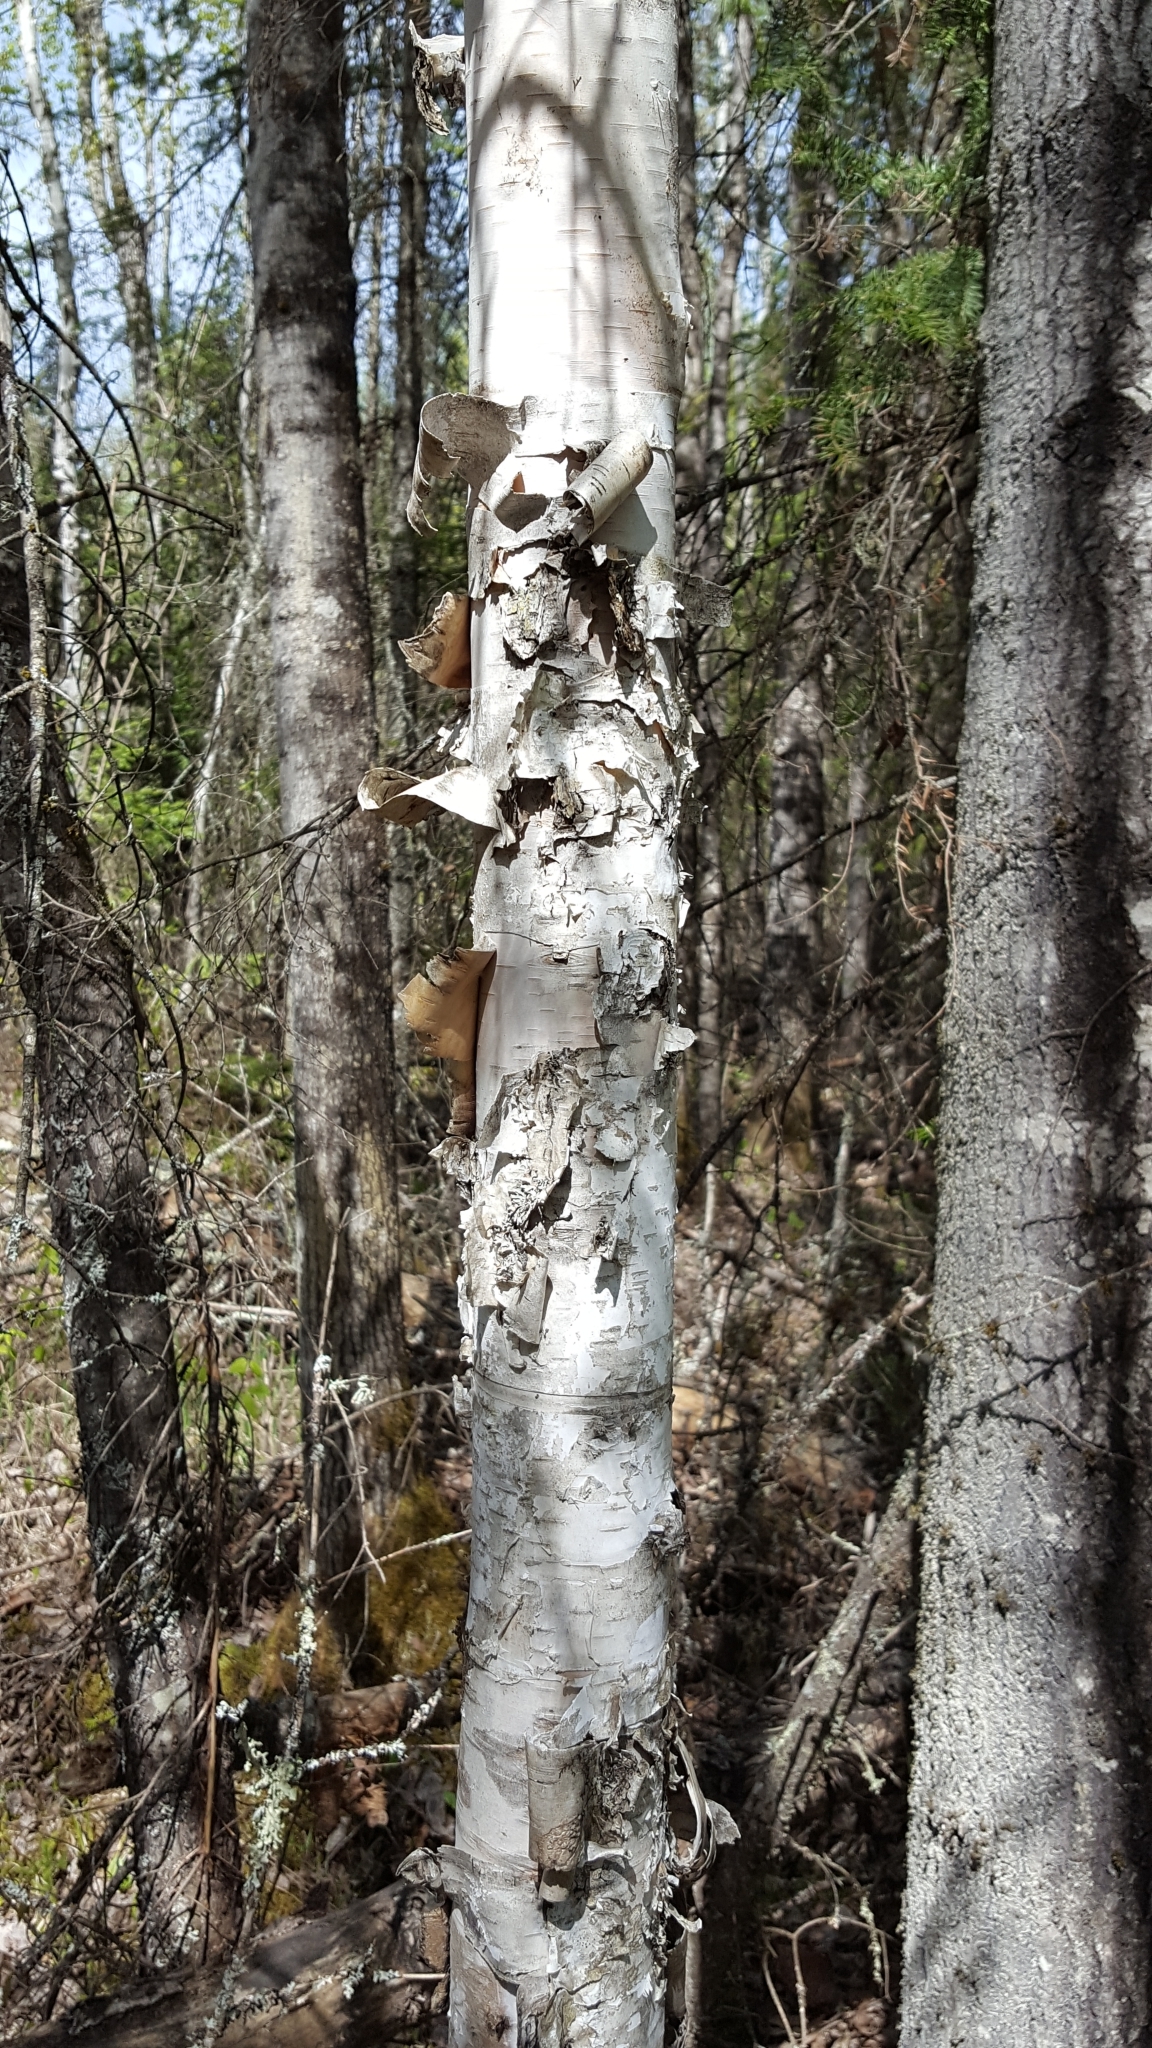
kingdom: Plantae
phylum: Tracheophyta
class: Magnoliopsida
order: Fagales
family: Betulaceae
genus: Betula
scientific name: Betula papyrifera
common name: Paper birch
